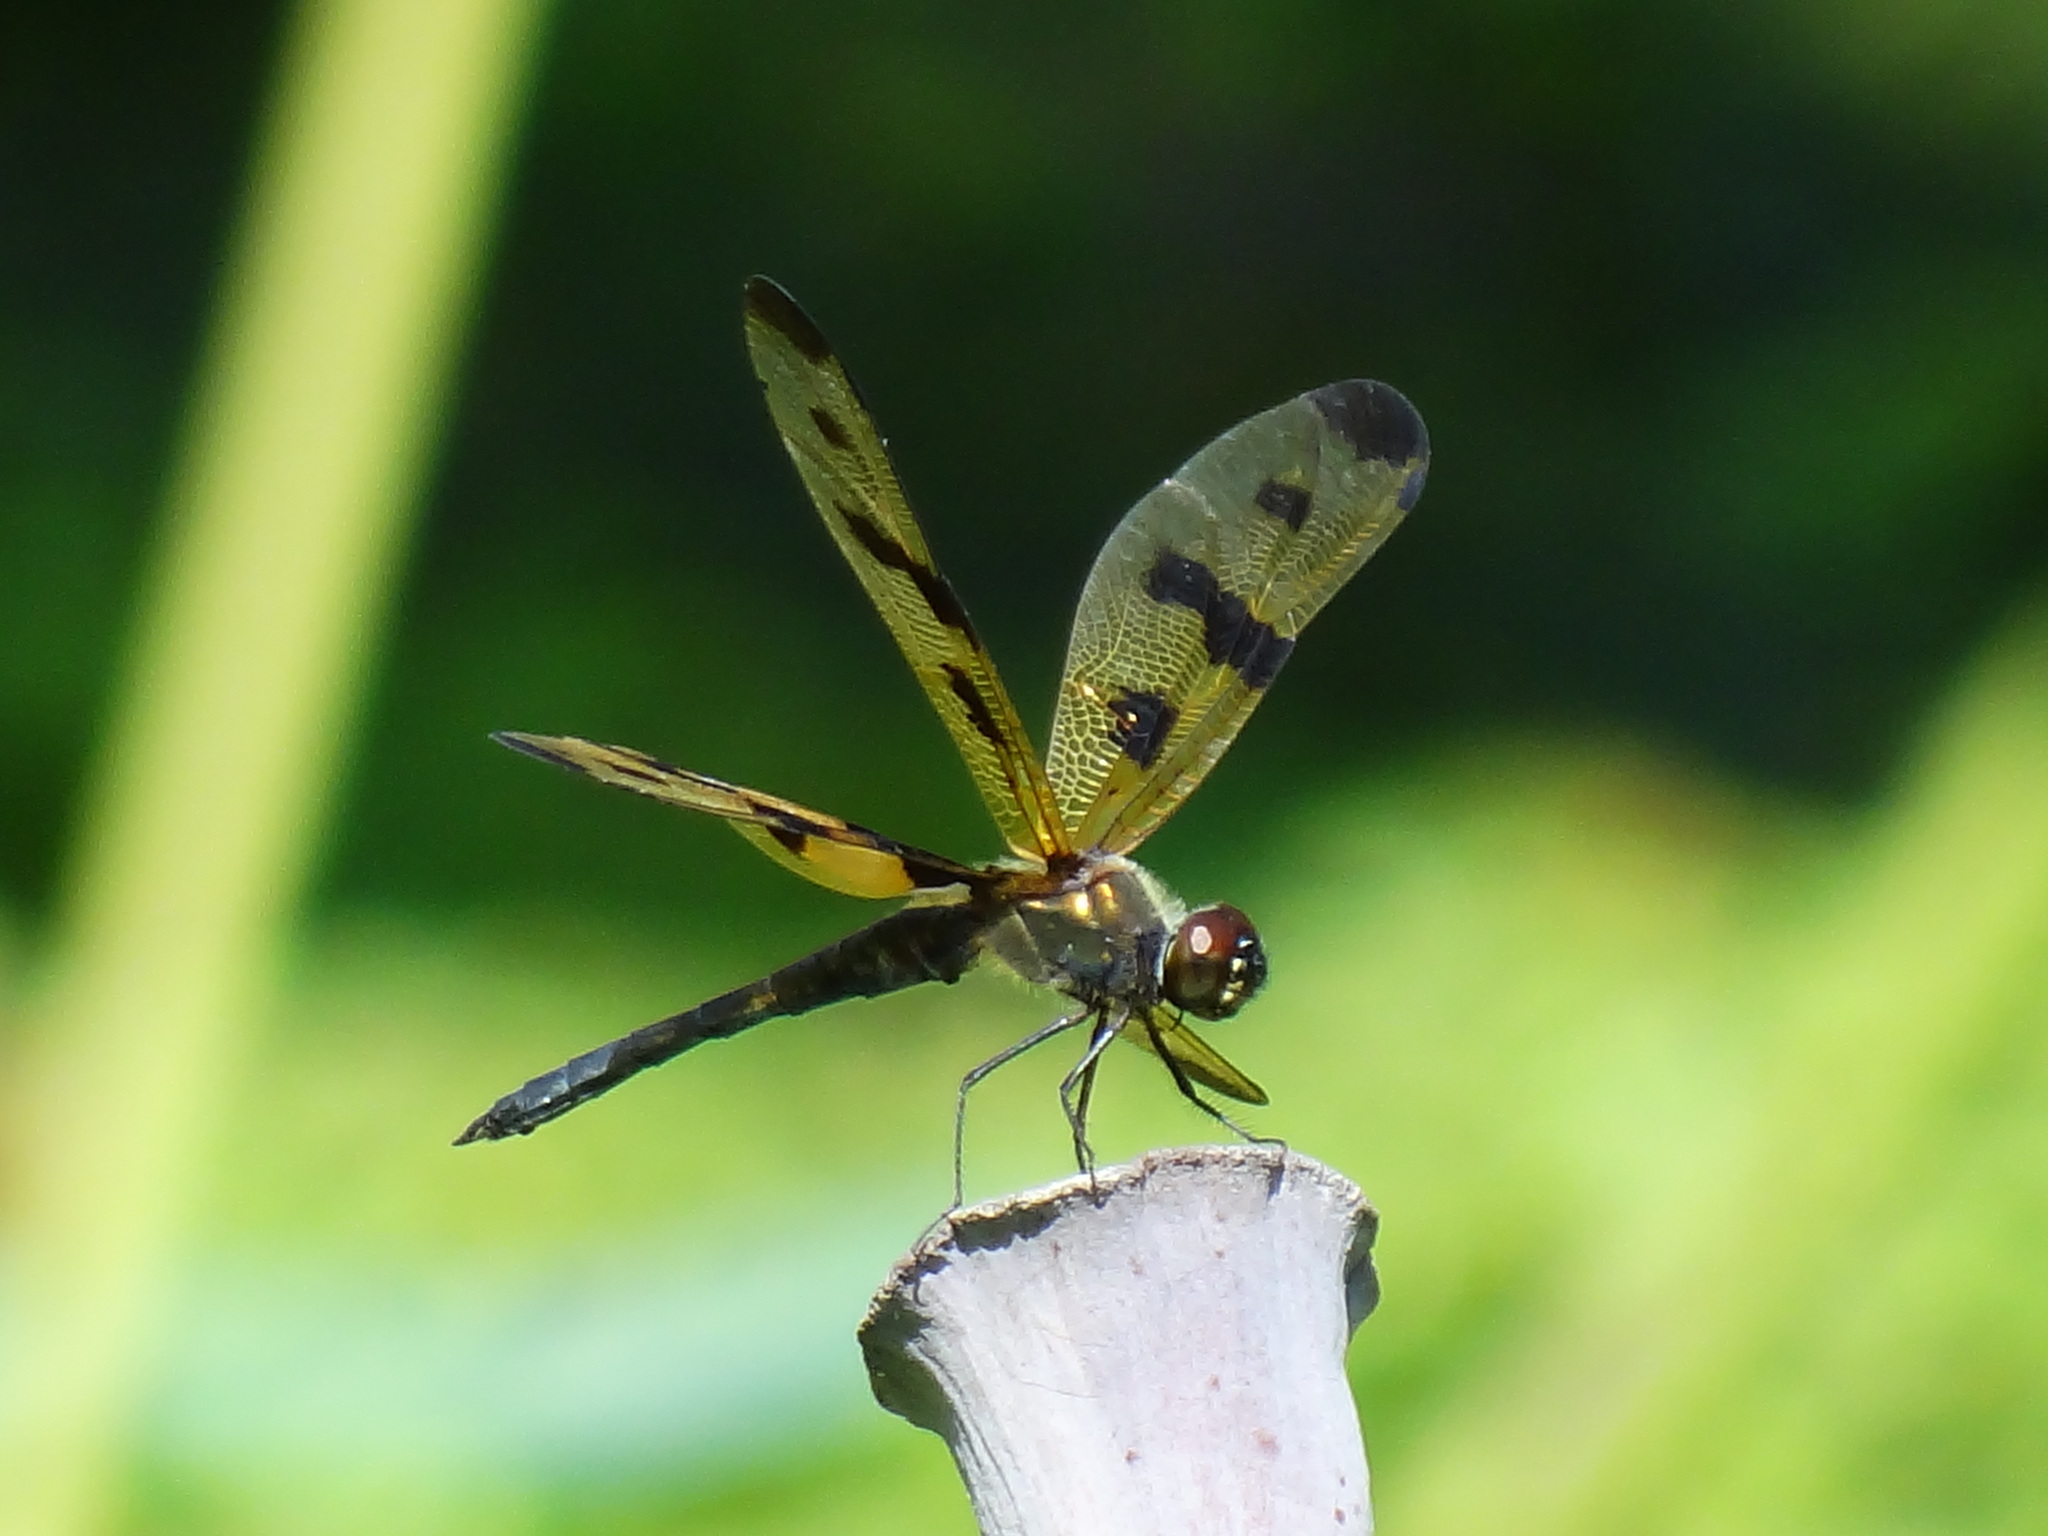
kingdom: Animalia
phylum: Arthropoda
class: Insecta
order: Odonata
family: Libellulidae
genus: Rhyothemis
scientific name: Rhyothemis variegata
